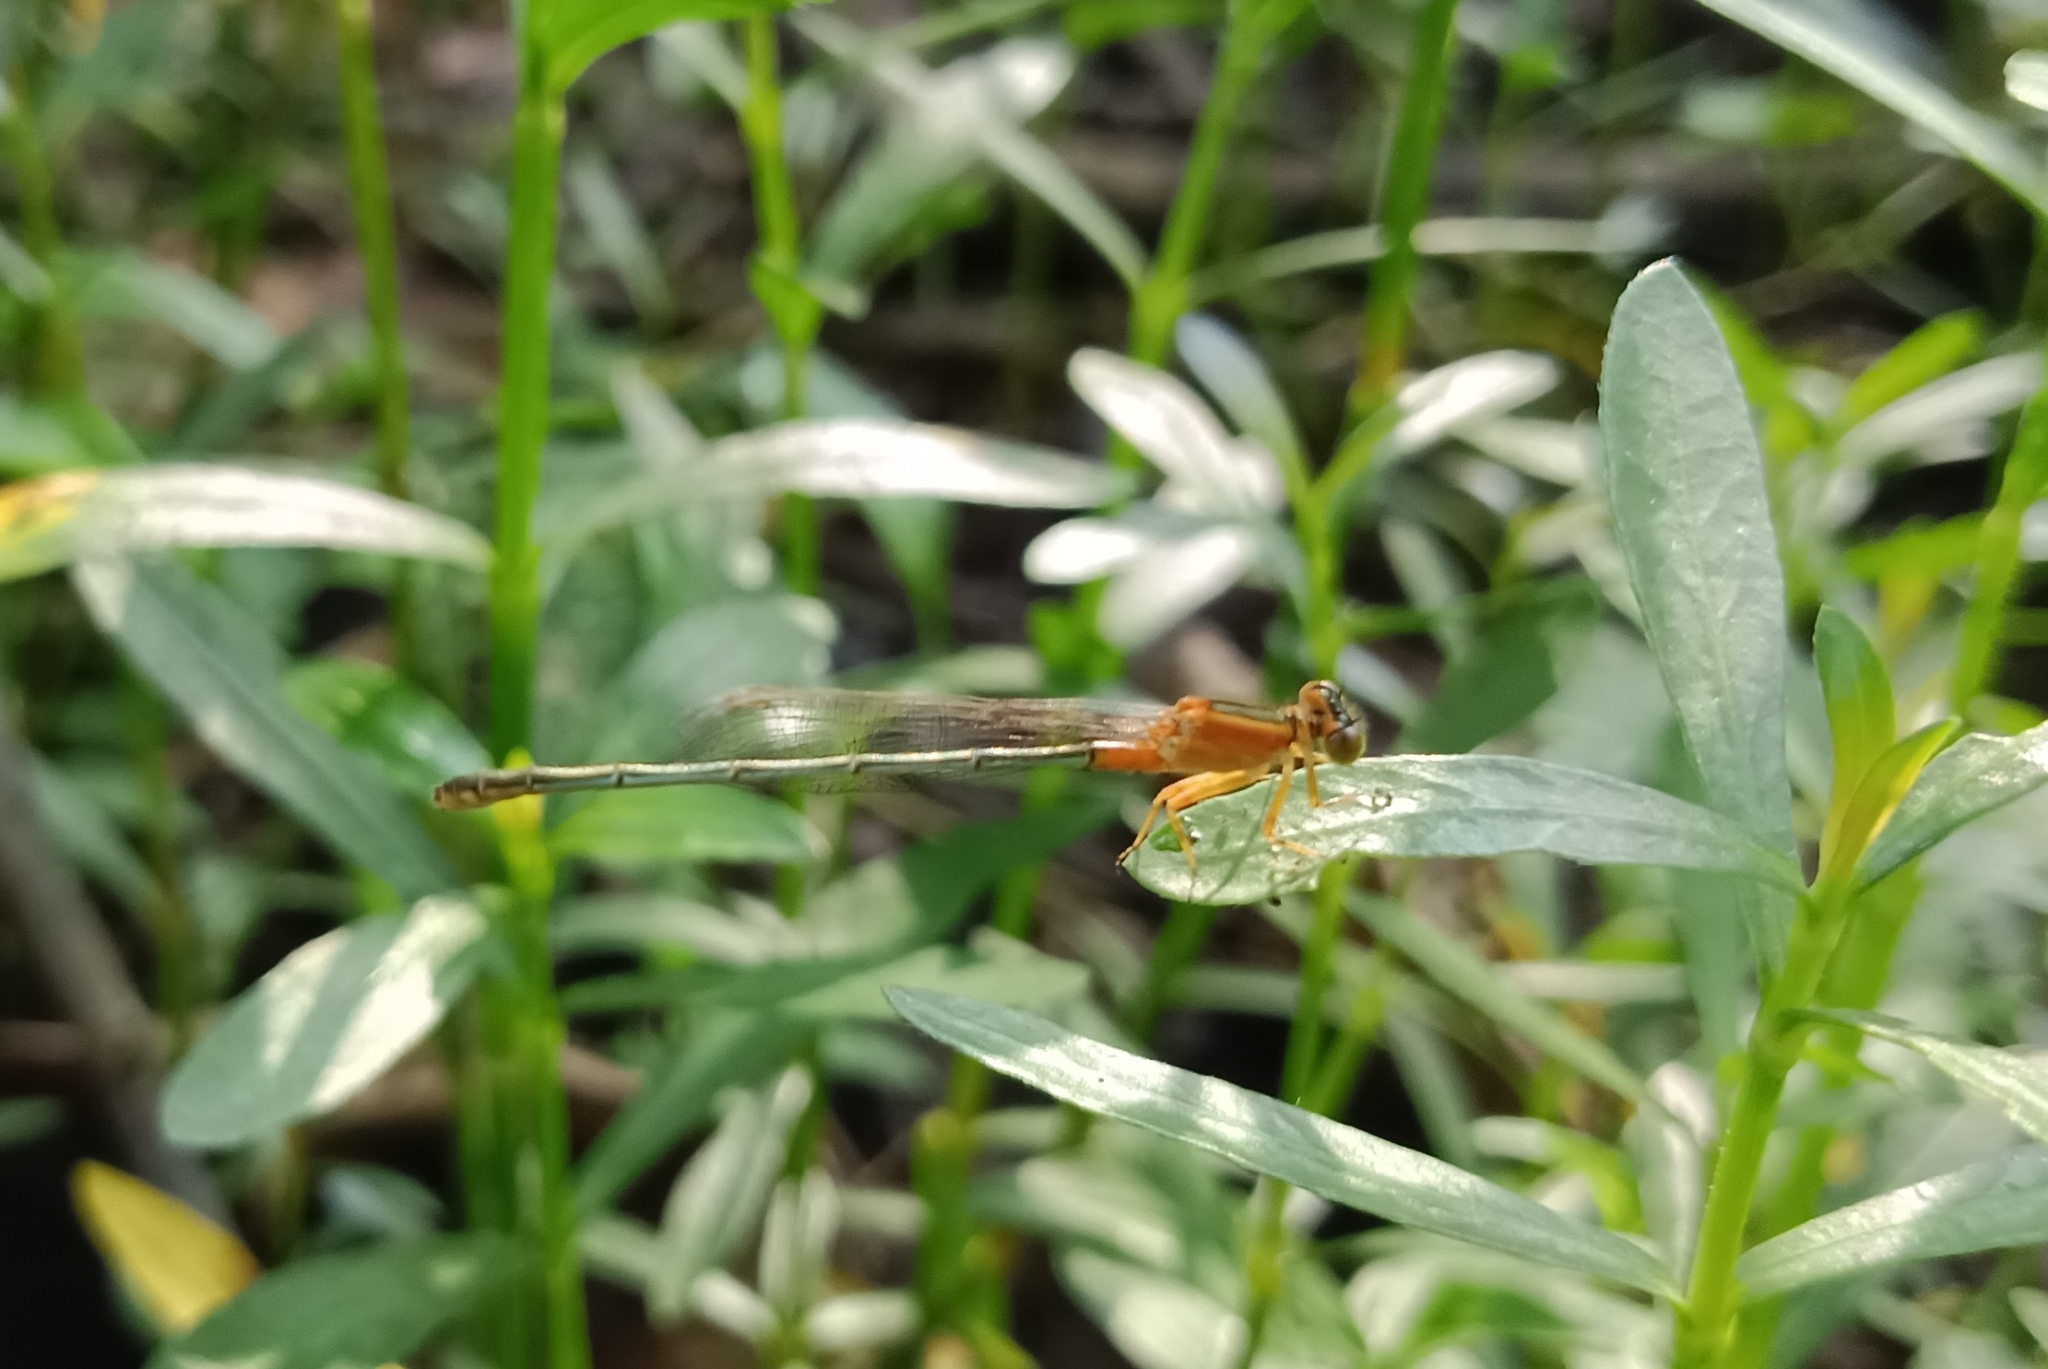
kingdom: Animalia
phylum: Arthropoda
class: Insecta
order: Odonata
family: Coenagrionidae
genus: Ischnura
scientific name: Ischnura senegalensis
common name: Tropical bluetail
